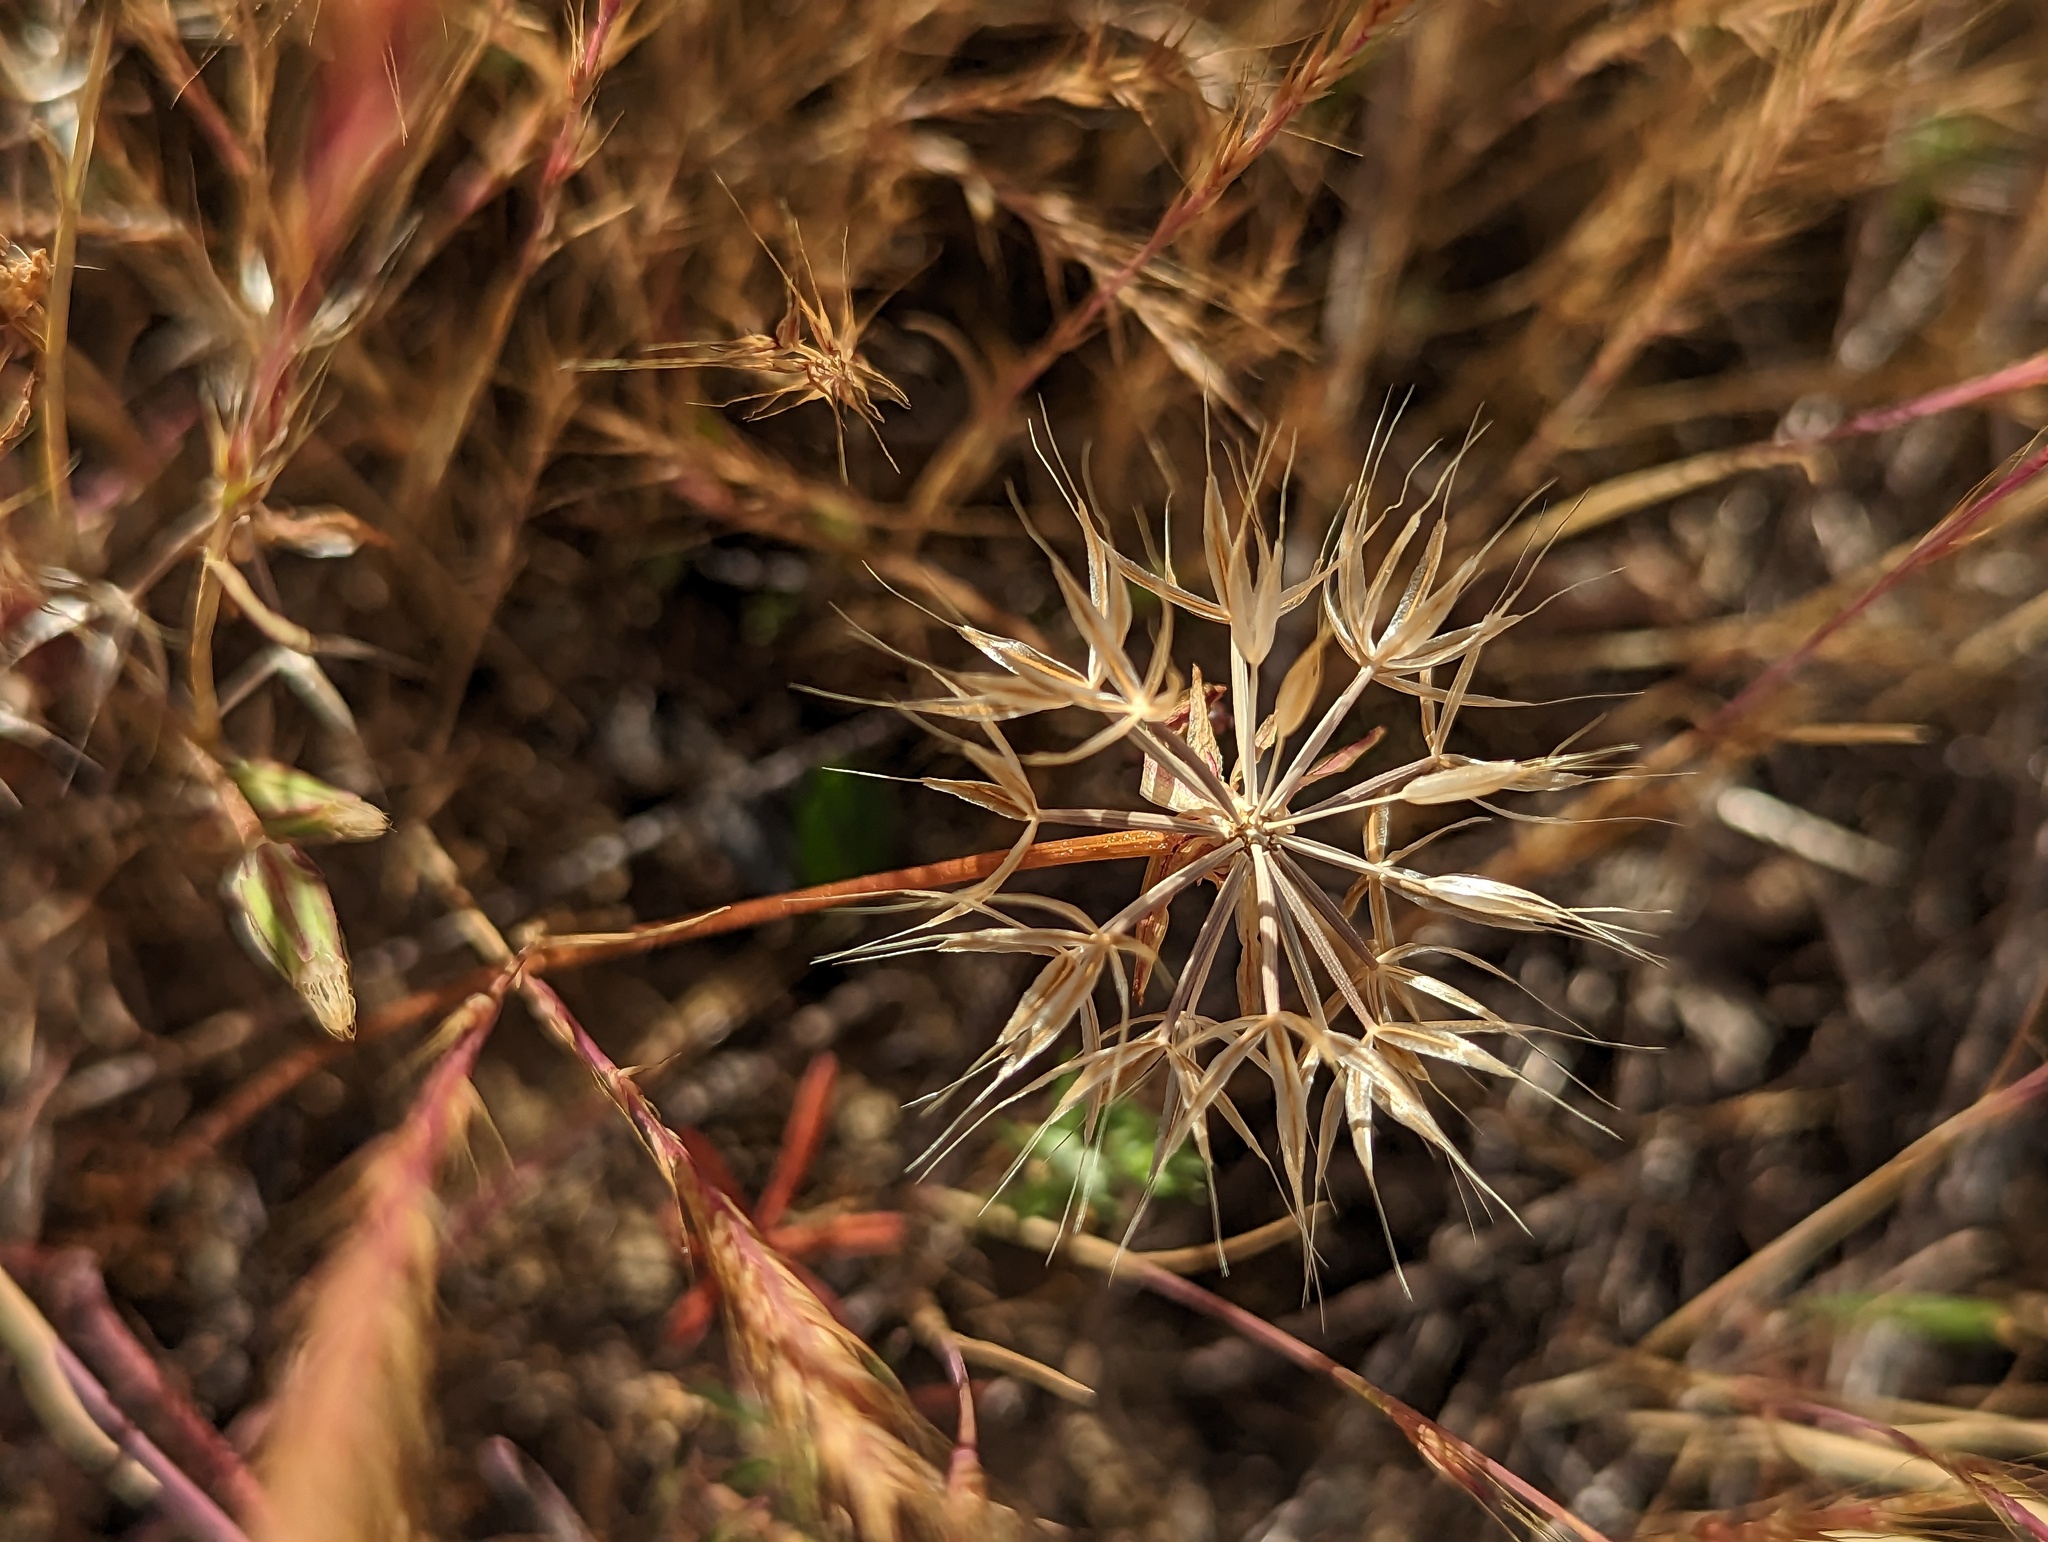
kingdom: Plantae
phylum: Tracheophyta
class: Magnoliopsida
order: Asterales
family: Asteraceae
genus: Microseris
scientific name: Microseris lindleyi
